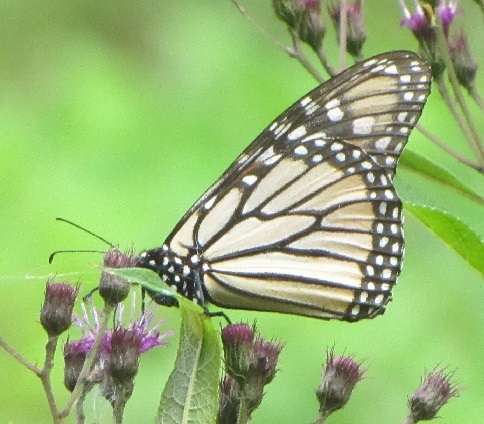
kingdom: Animalia
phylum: Arthropoda
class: Insecta
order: Lepidoptera
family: Nymphalidae
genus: Danaus
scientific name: Danaus plexippus
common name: Monarch
